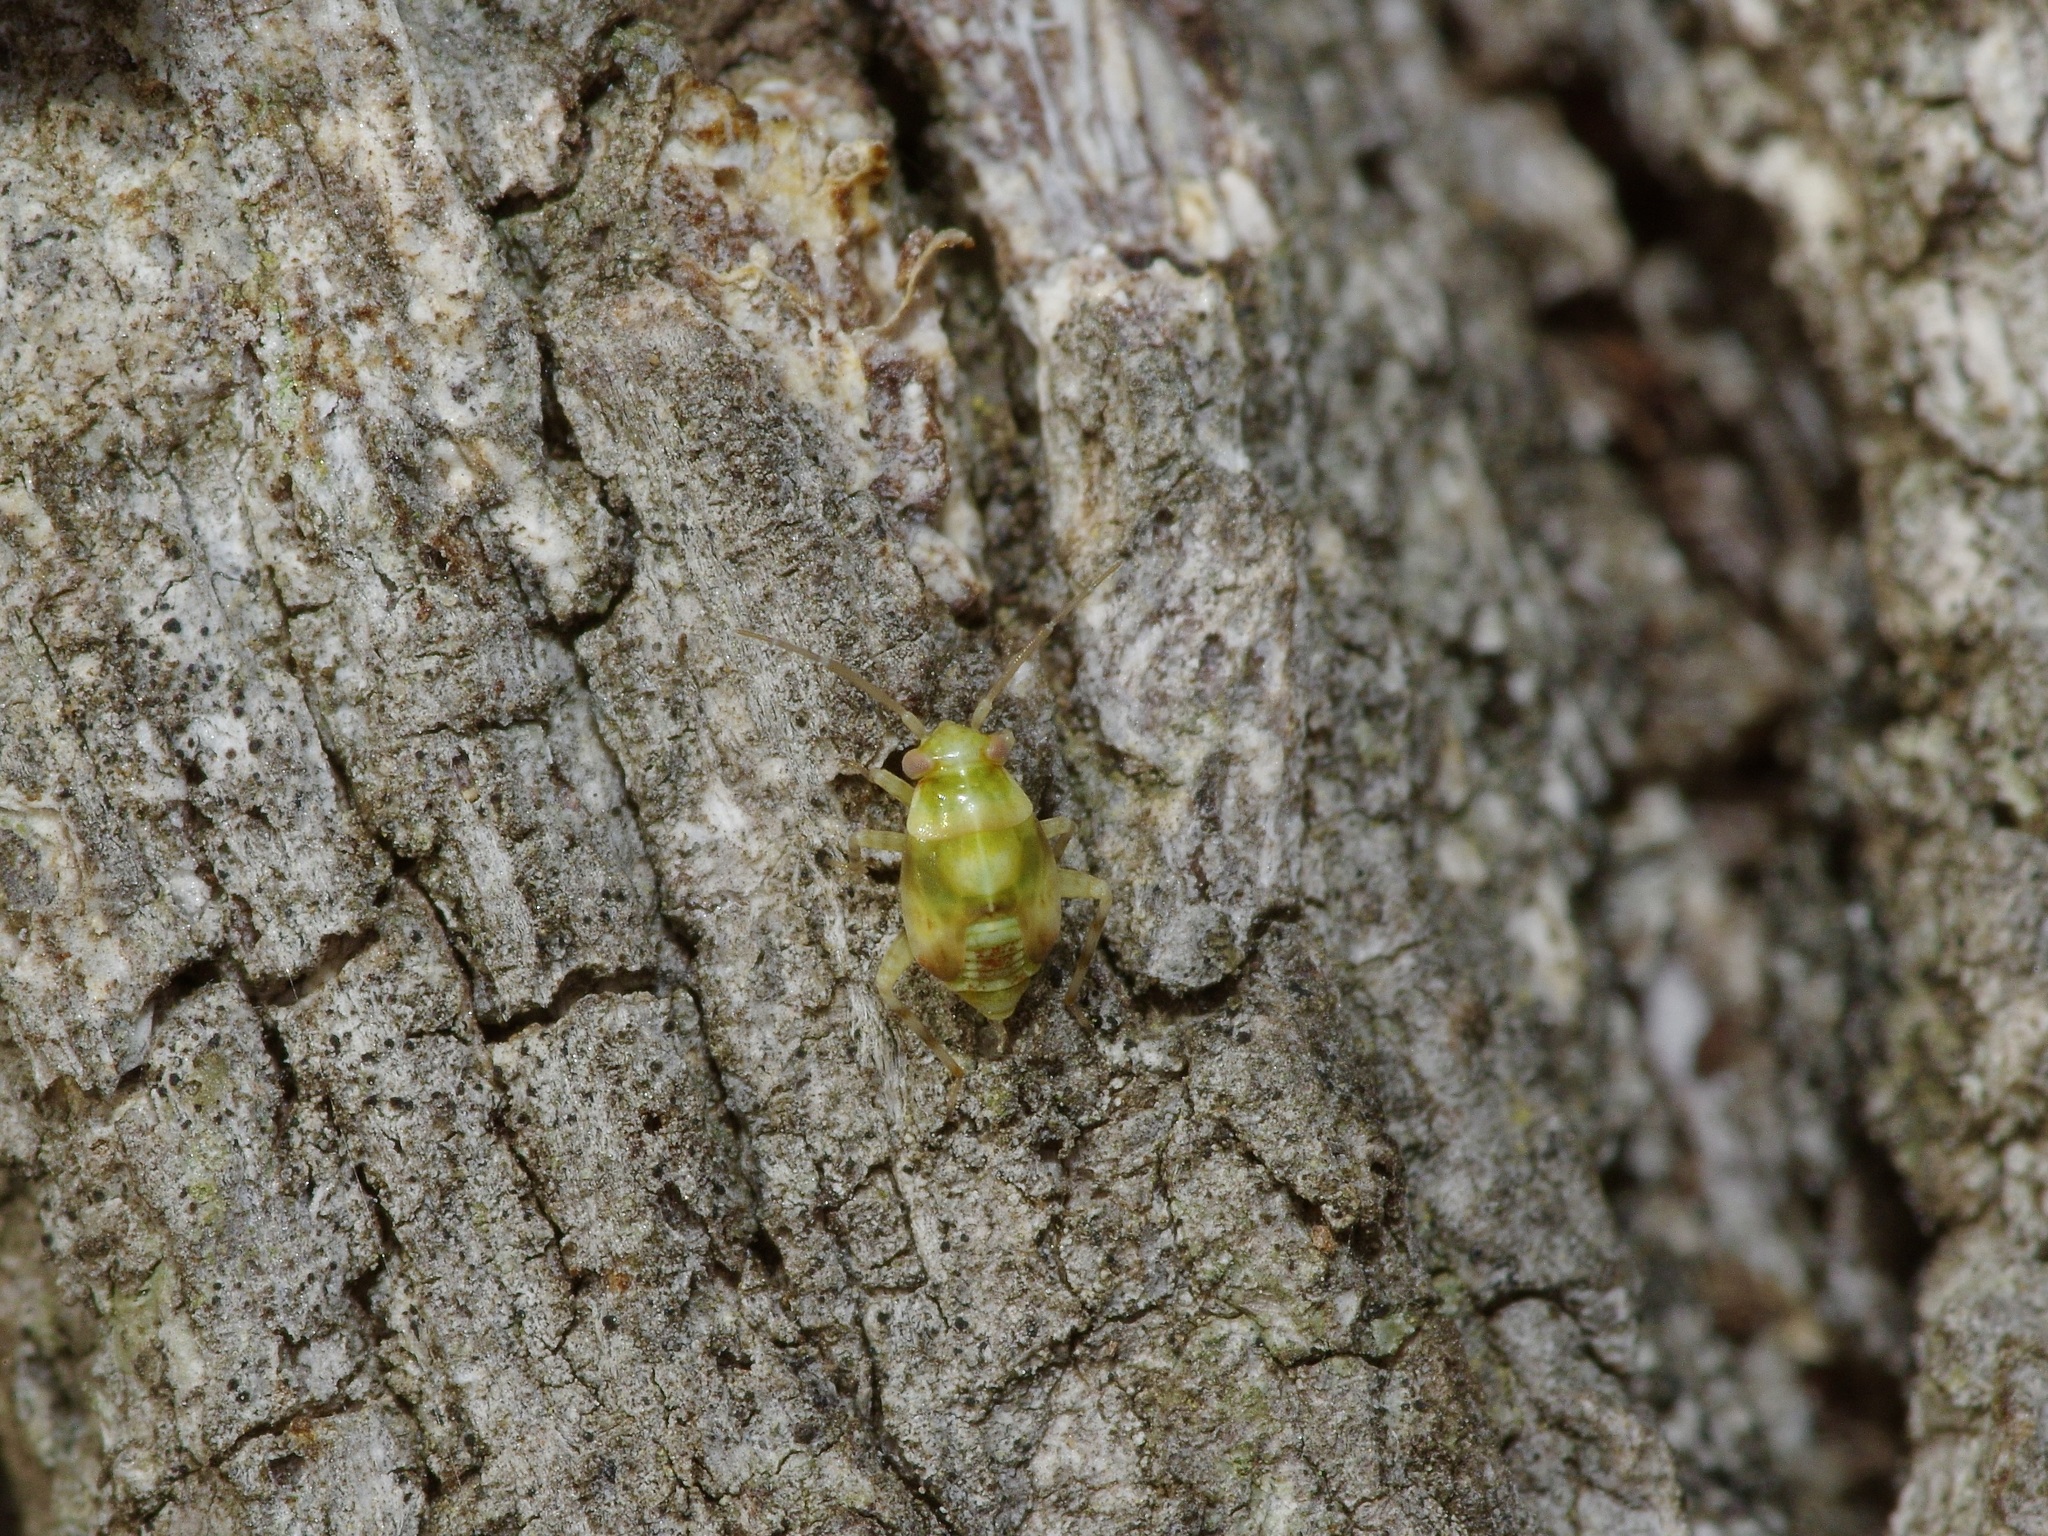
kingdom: Animalia
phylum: Arthropoda
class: Insecta
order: Hemiptera
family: Miridae
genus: Tropidosteptes
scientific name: Tropidosteptes quercicola
